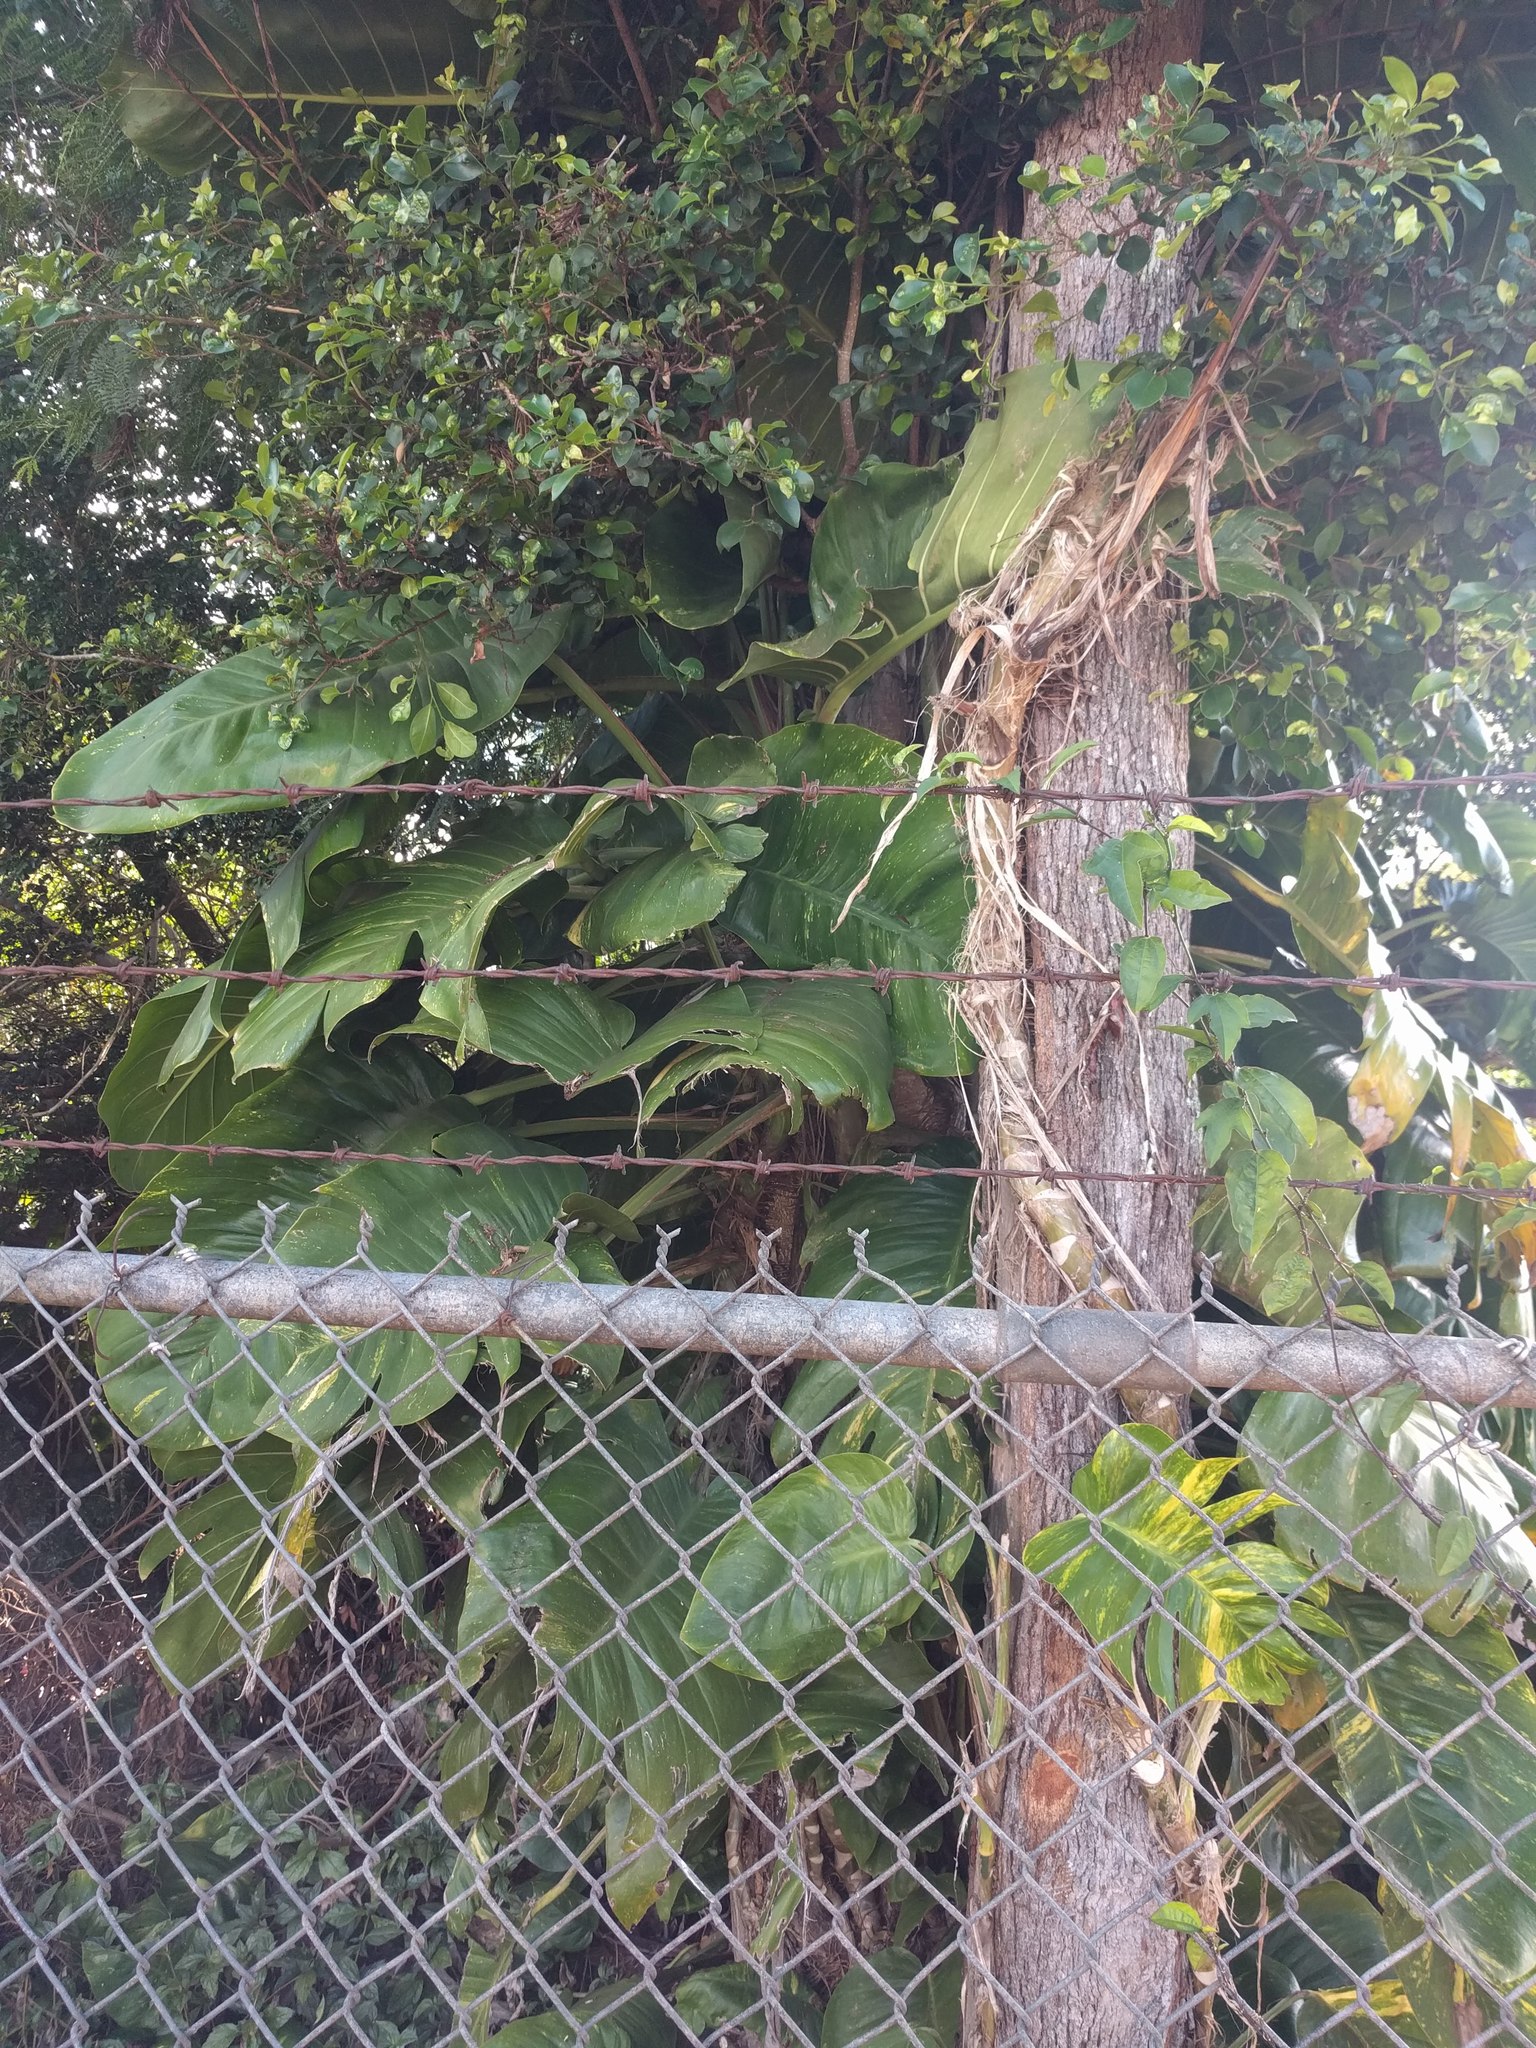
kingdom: Plantae
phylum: Tracheophyta
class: Liliopsida
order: Alismatales
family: Araceae
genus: Epipremnum
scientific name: Epipremnum aureum
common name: Golden hunter's-robe
